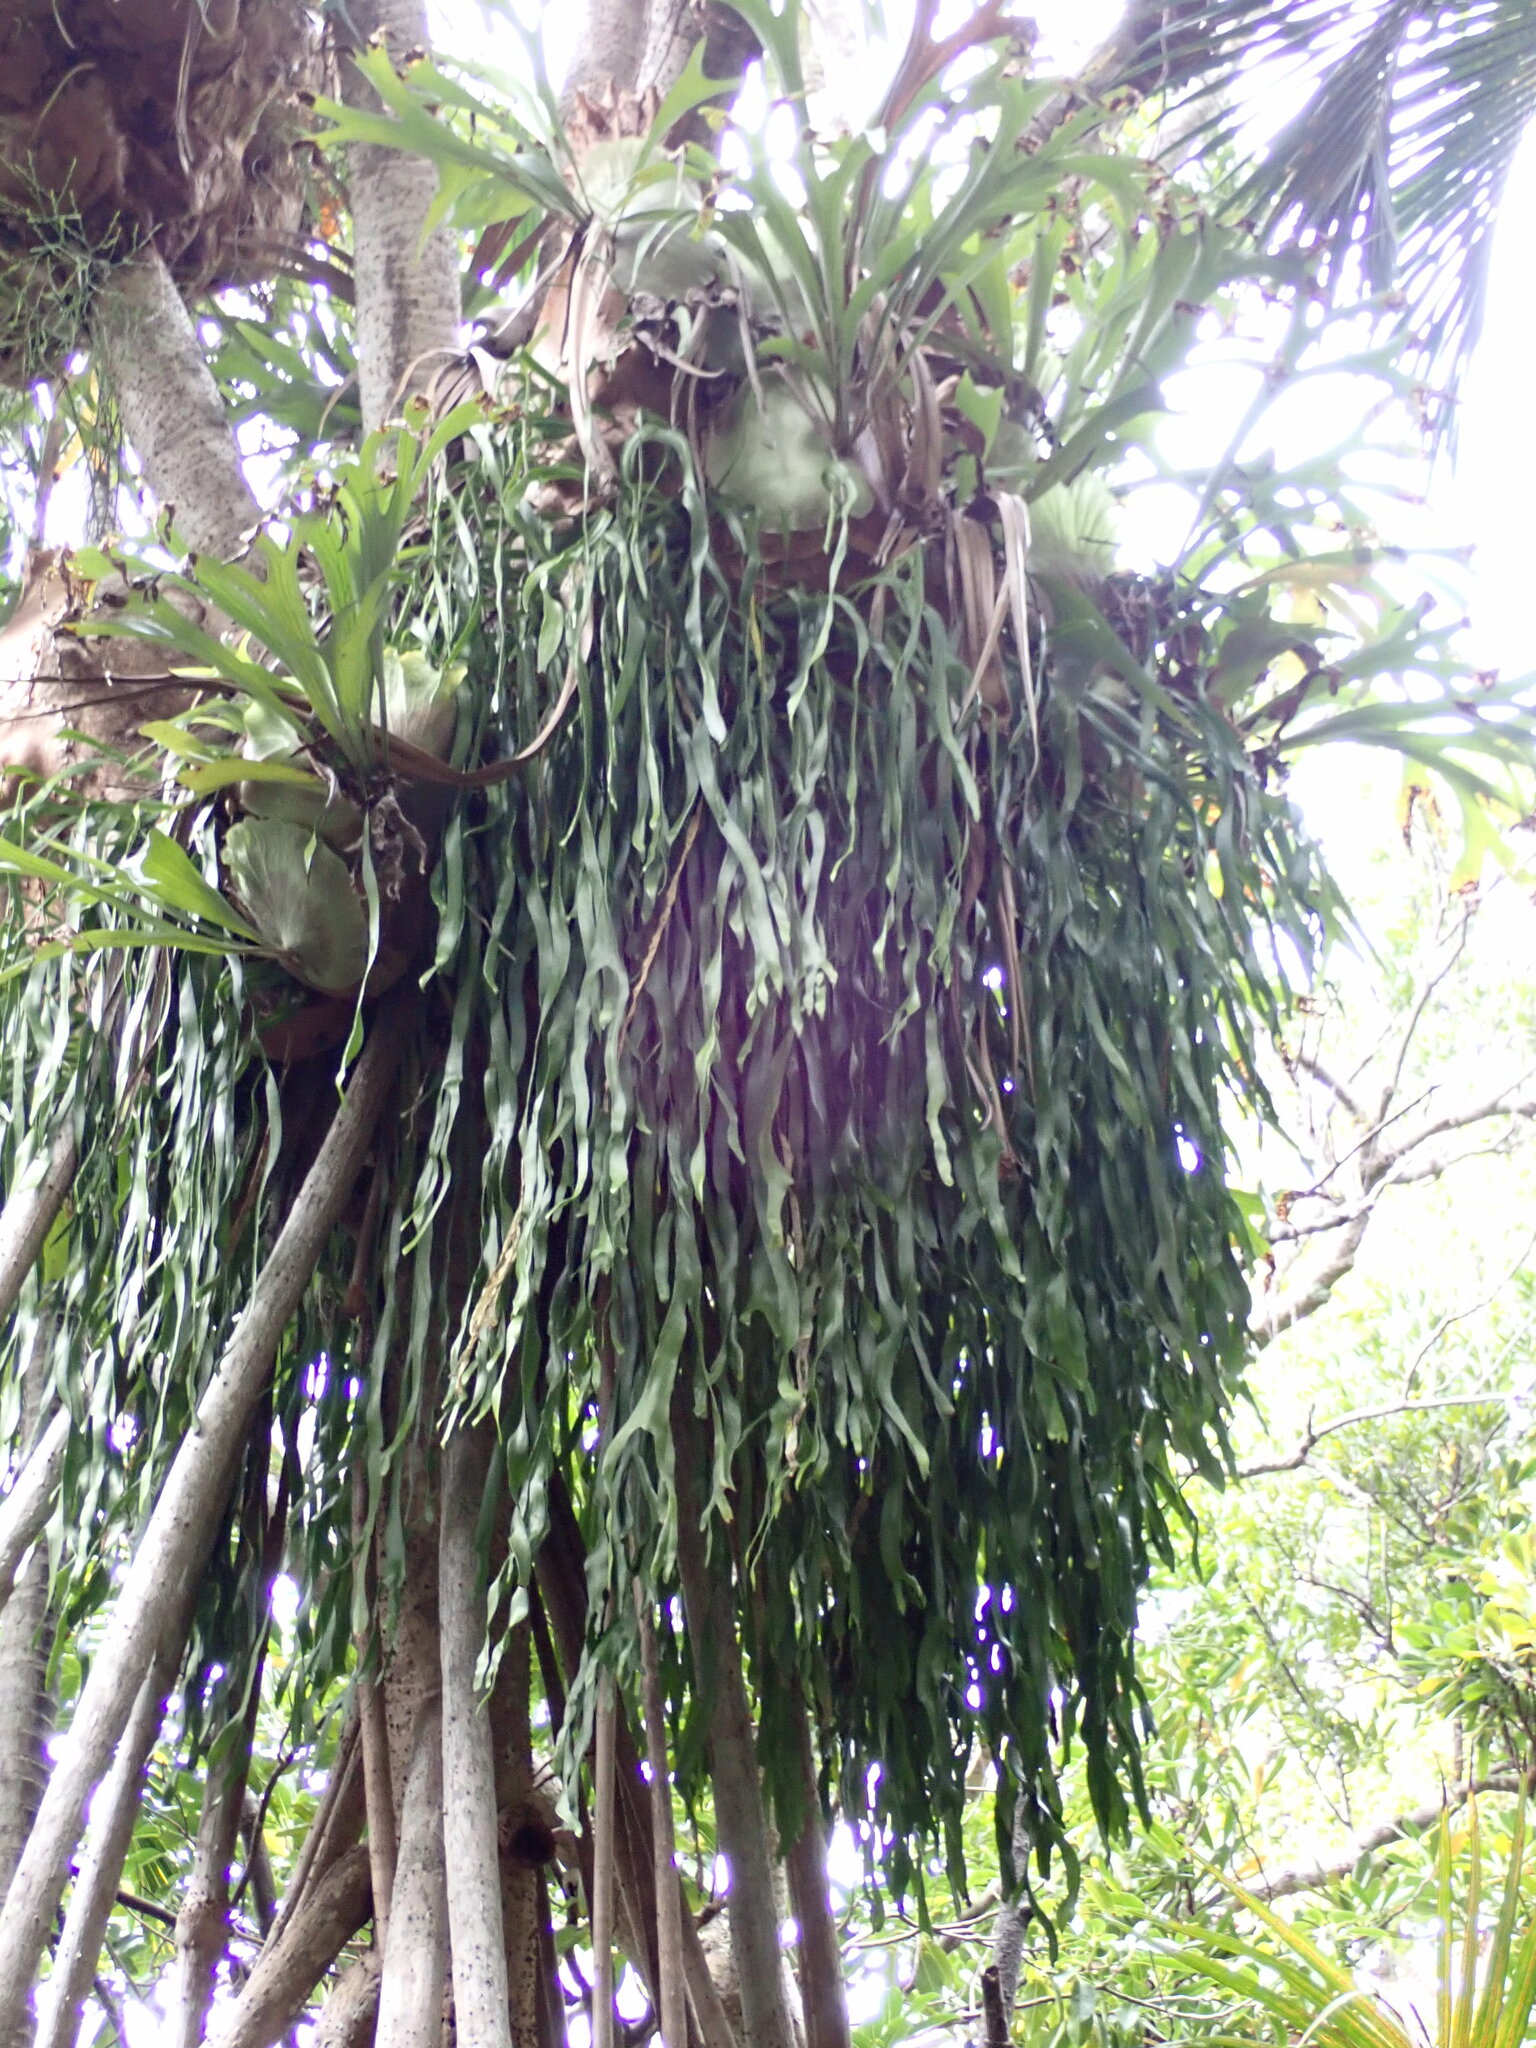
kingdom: Plantae
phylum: Tracheophyta
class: Polypodiopsida
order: Ophioglossales
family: Ophioglossaceae
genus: Ophioglossum
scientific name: Ophioglossum reticulatum
